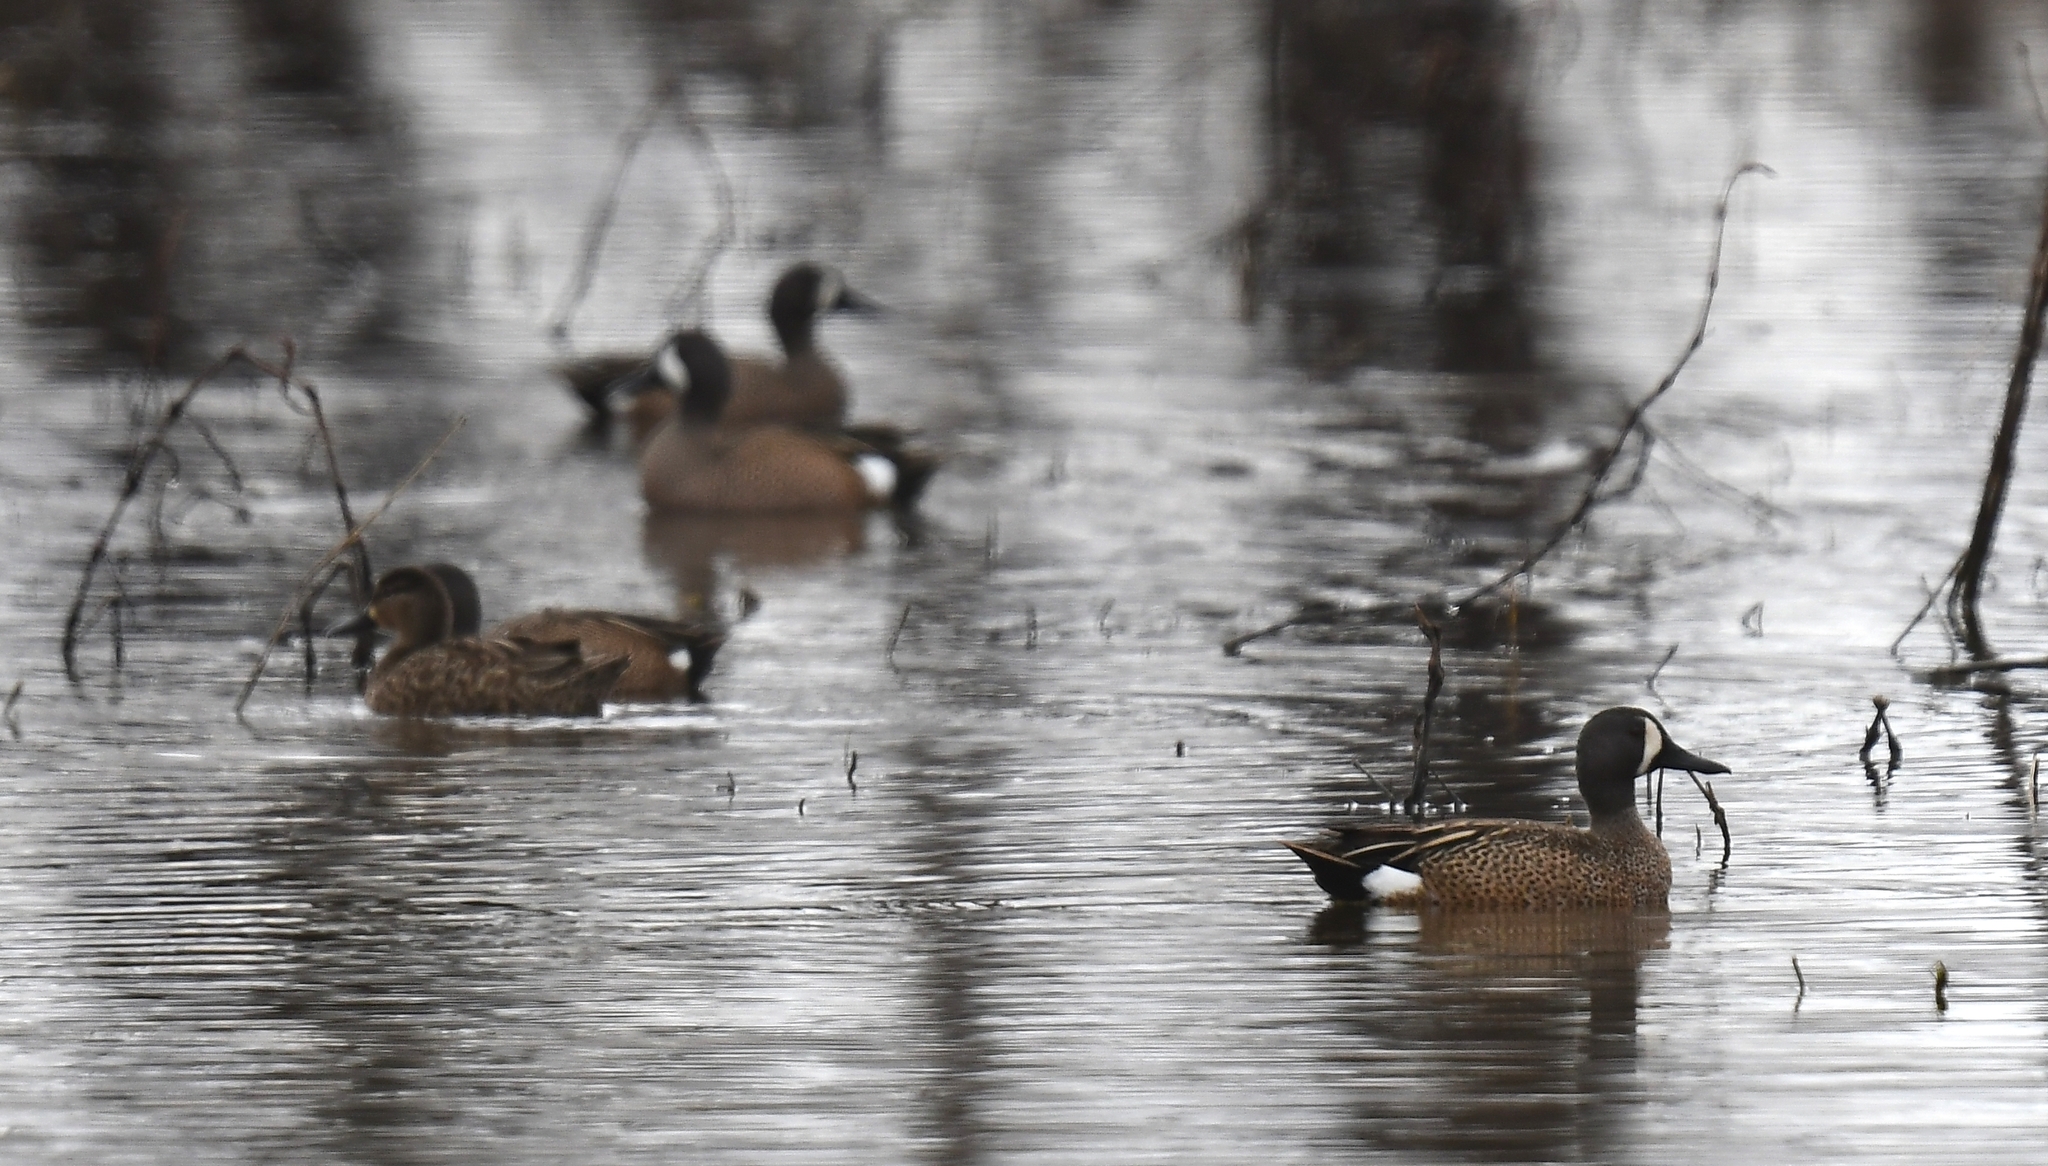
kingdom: Animalia
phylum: Chordata
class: Aves
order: Anseriformes
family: Anatidae
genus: Spatula
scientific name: Spatula discors
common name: Blue-winged teal
